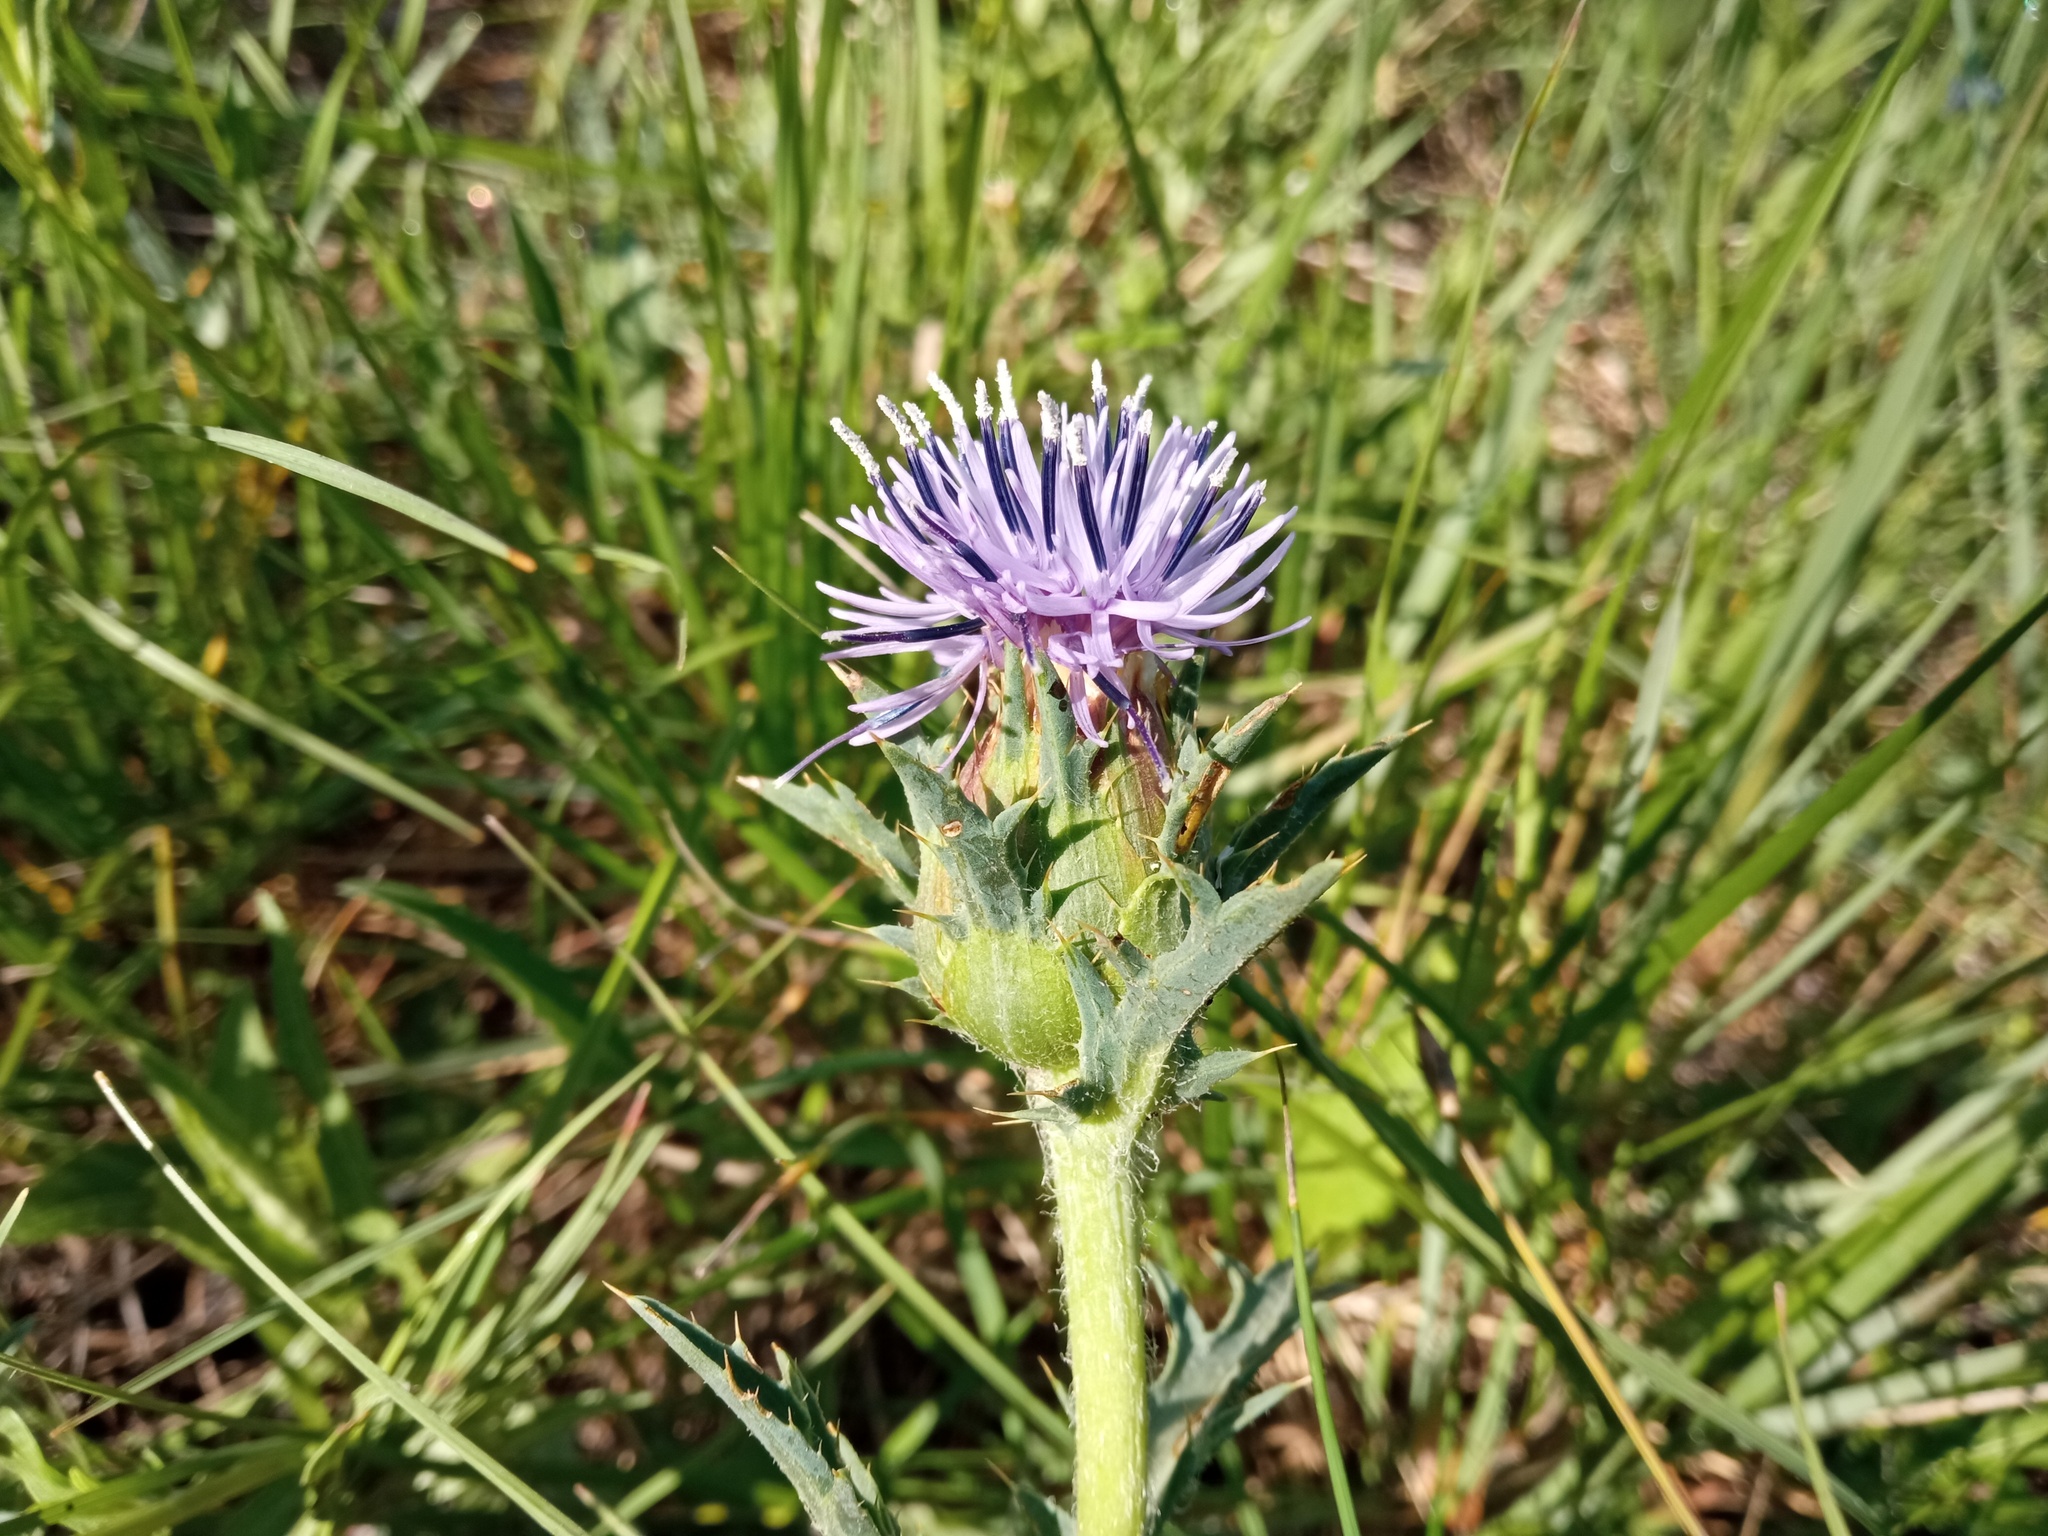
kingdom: Plantae
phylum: Tracheophyta
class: Magnoliopsida
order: Asterales
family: Asteraceae
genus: Carduncellus
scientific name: Carduncellus monspelliensium
